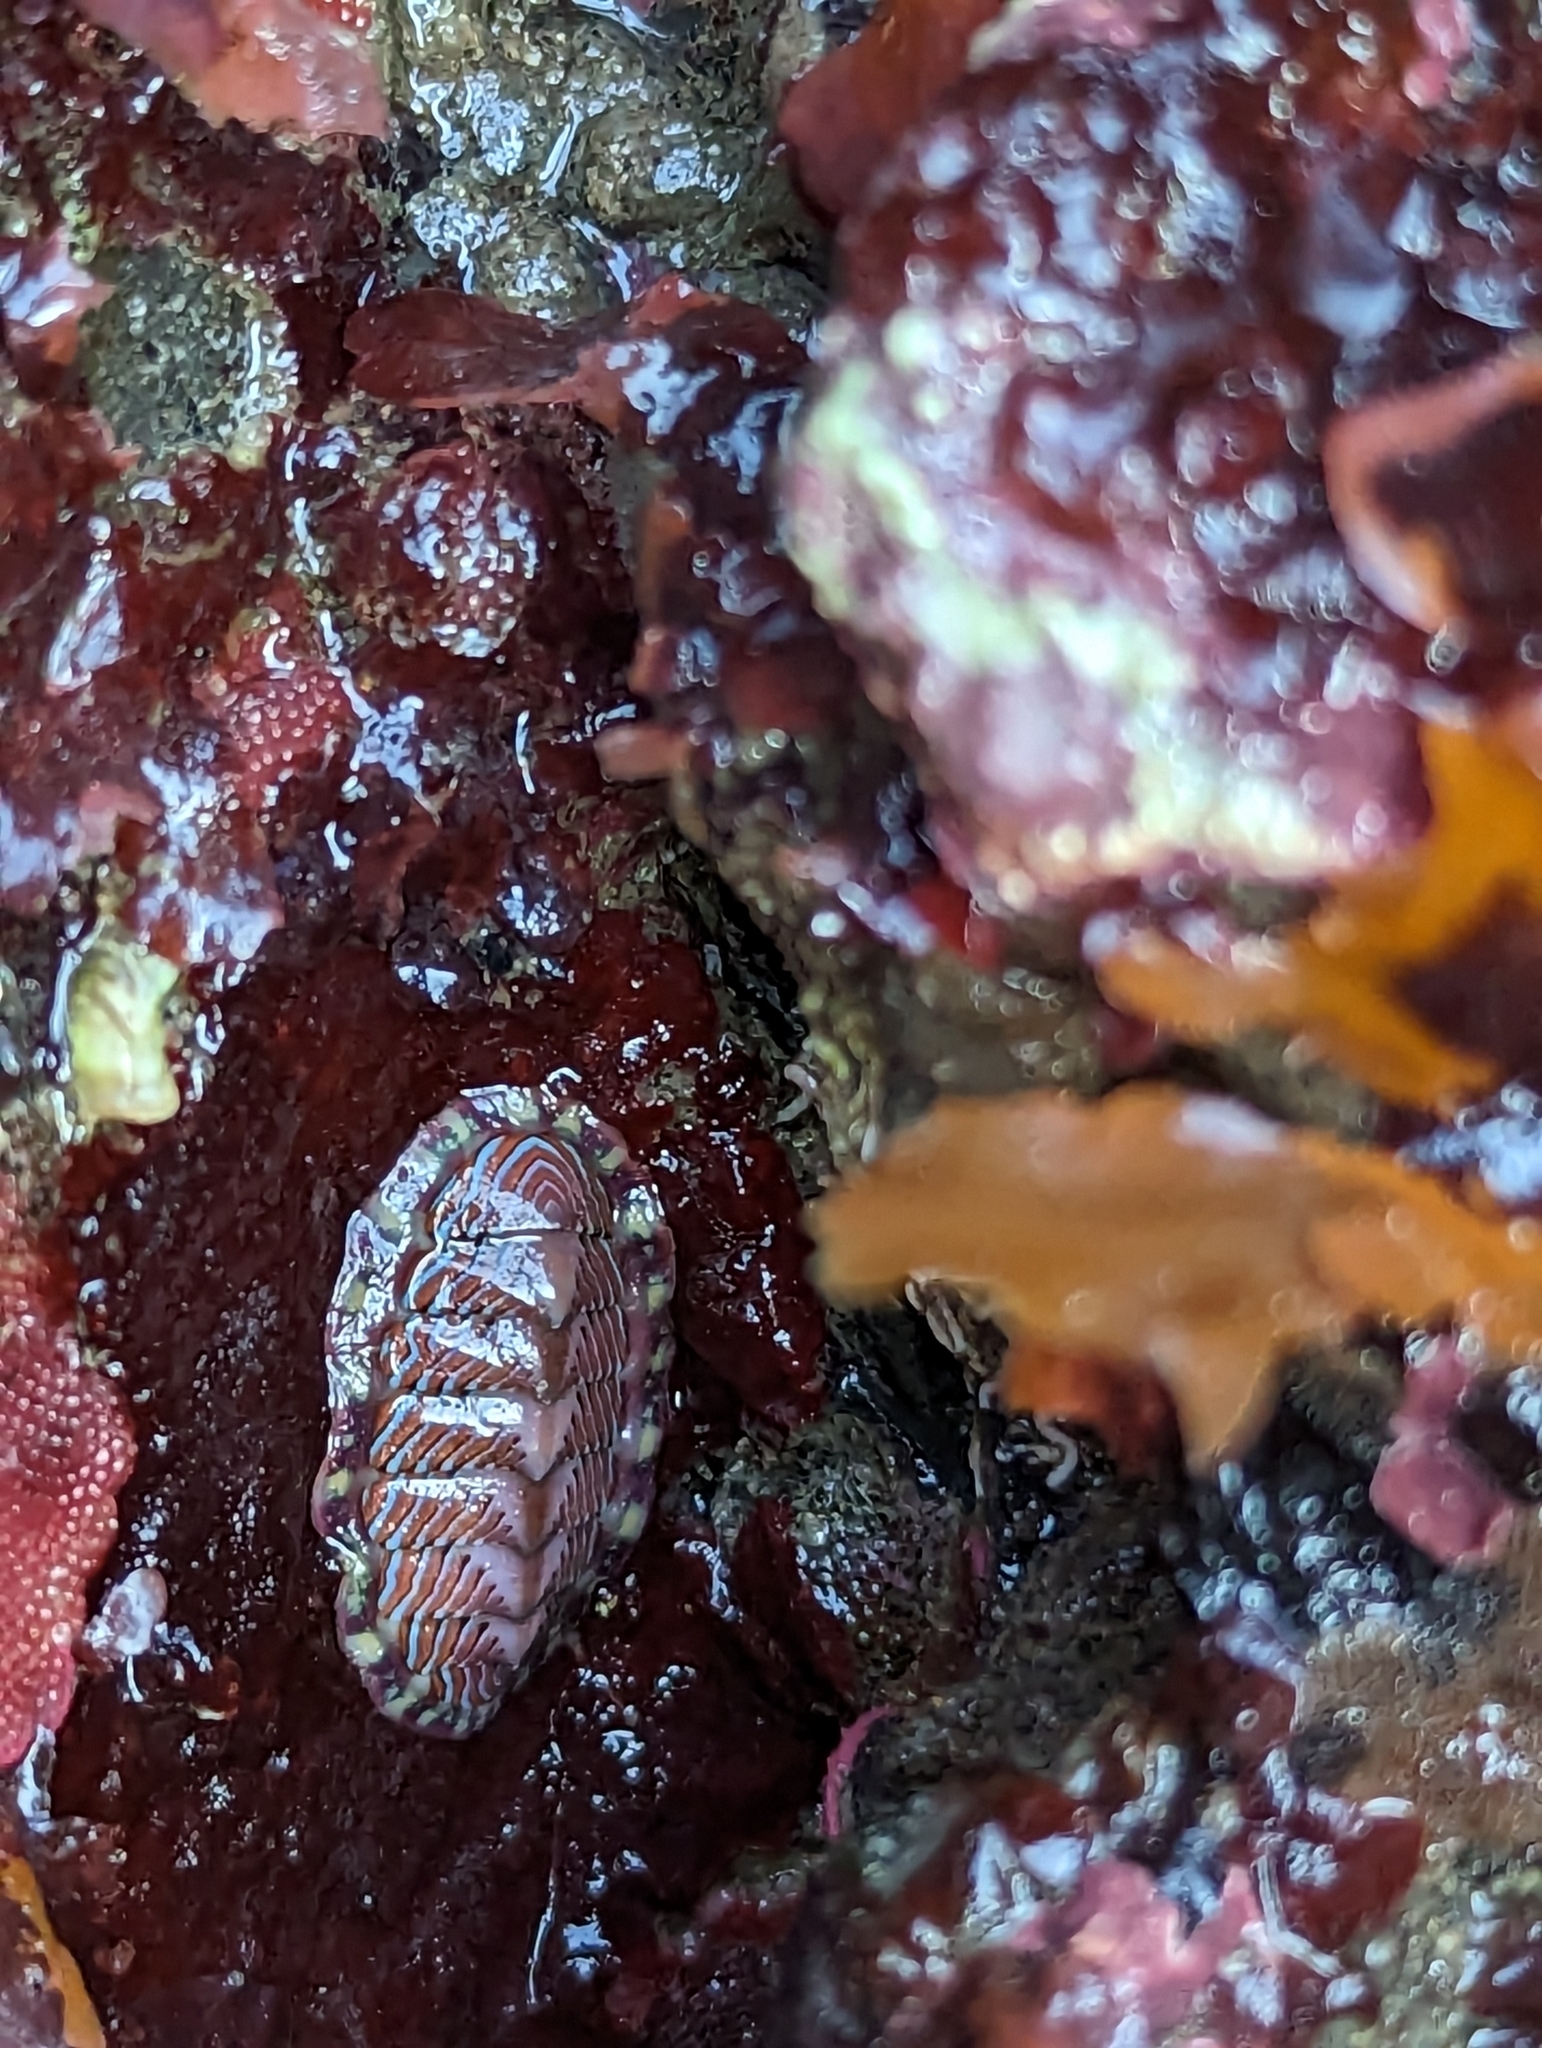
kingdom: Animalia
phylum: Mollusca
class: Polyplacophora
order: Chitonida
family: Tonicellidae
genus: Tonicella
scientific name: Tonicella lineata
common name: Lined chiton
